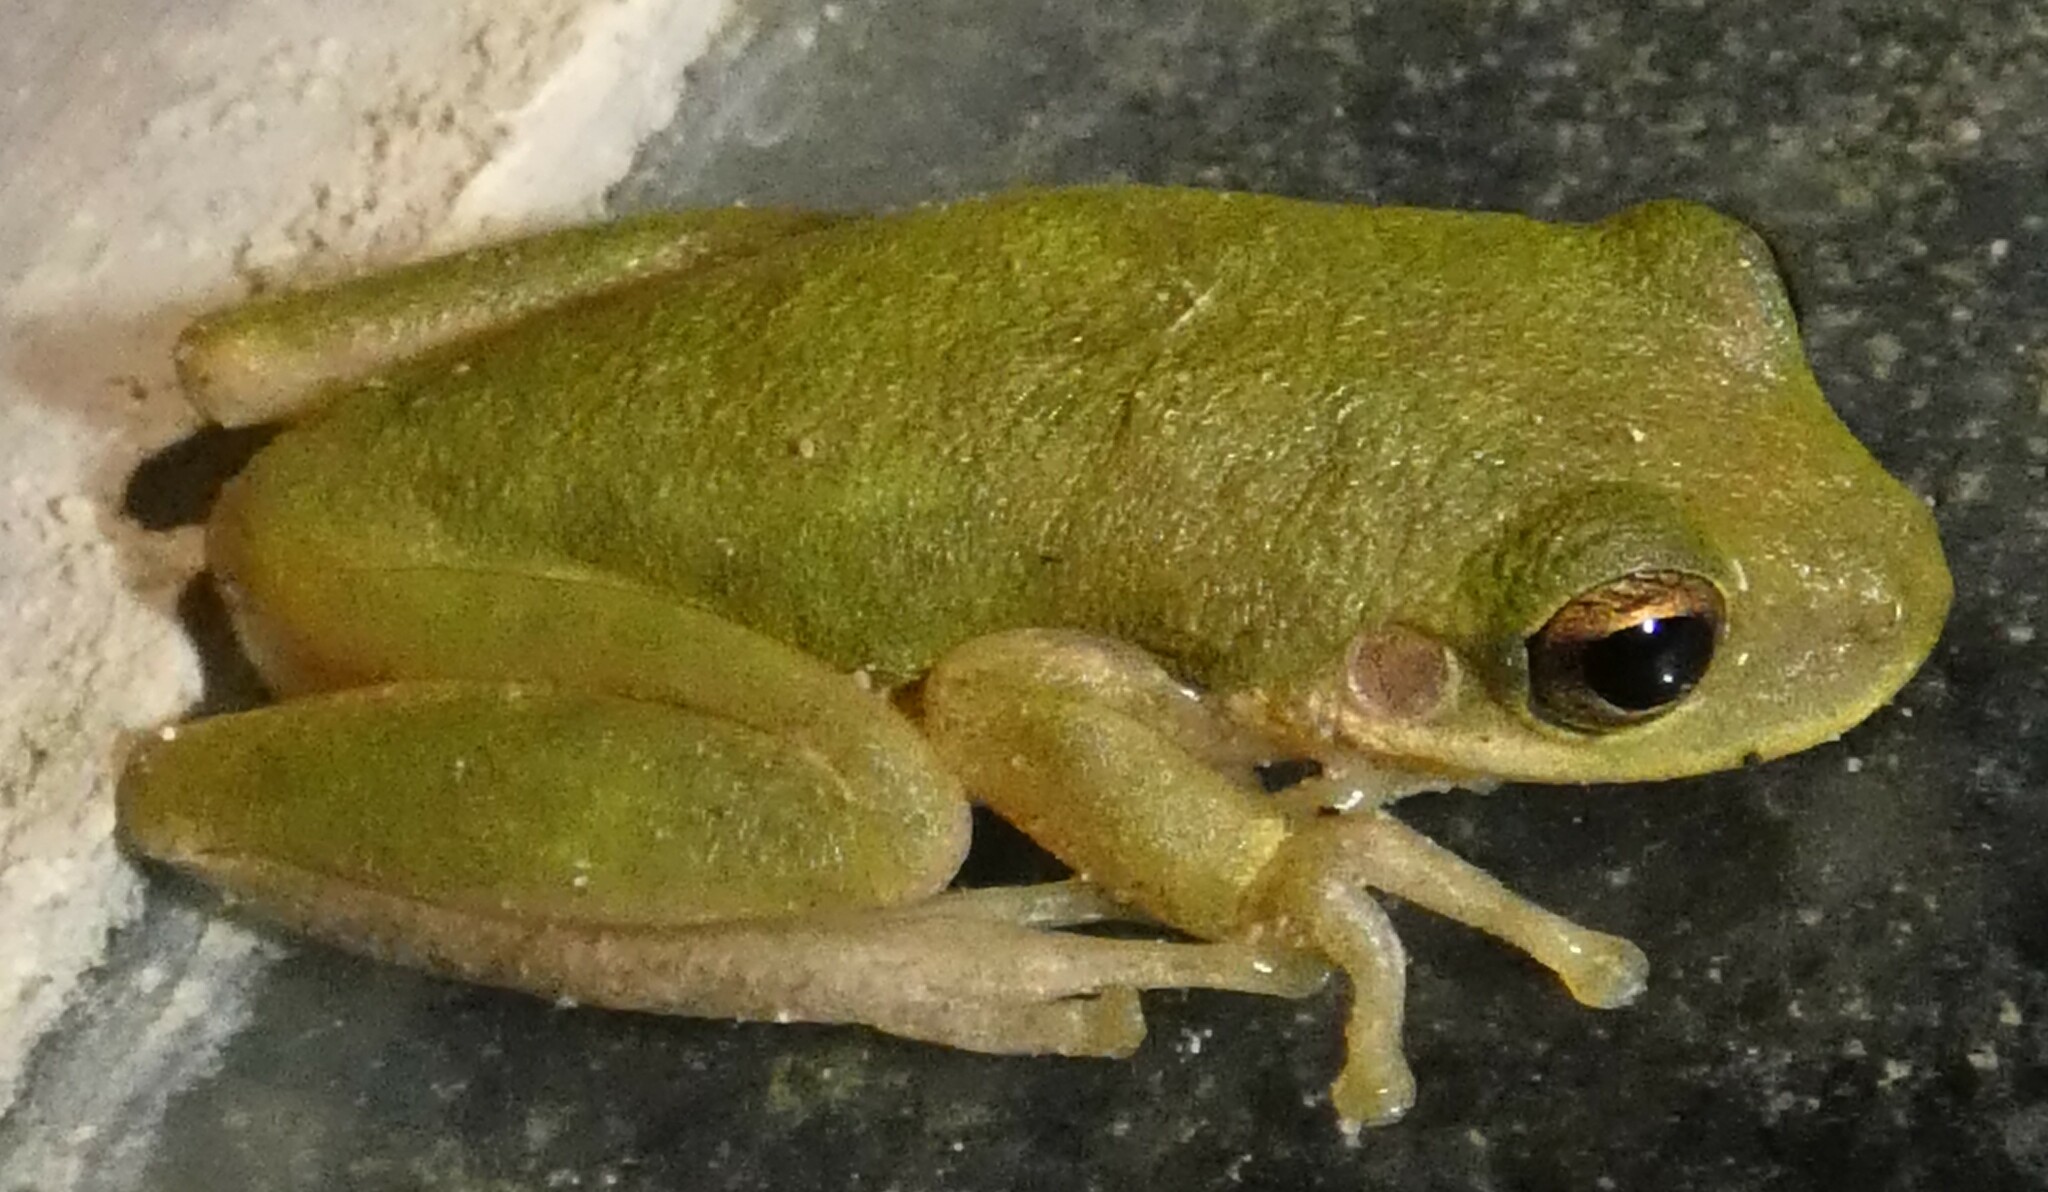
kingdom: Animalia
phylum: Chordata
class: Amphibia
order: Anura
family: Hylidae
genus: Dryophytes
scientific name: Dryophytes squirellus
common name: Squirrel treefrog
